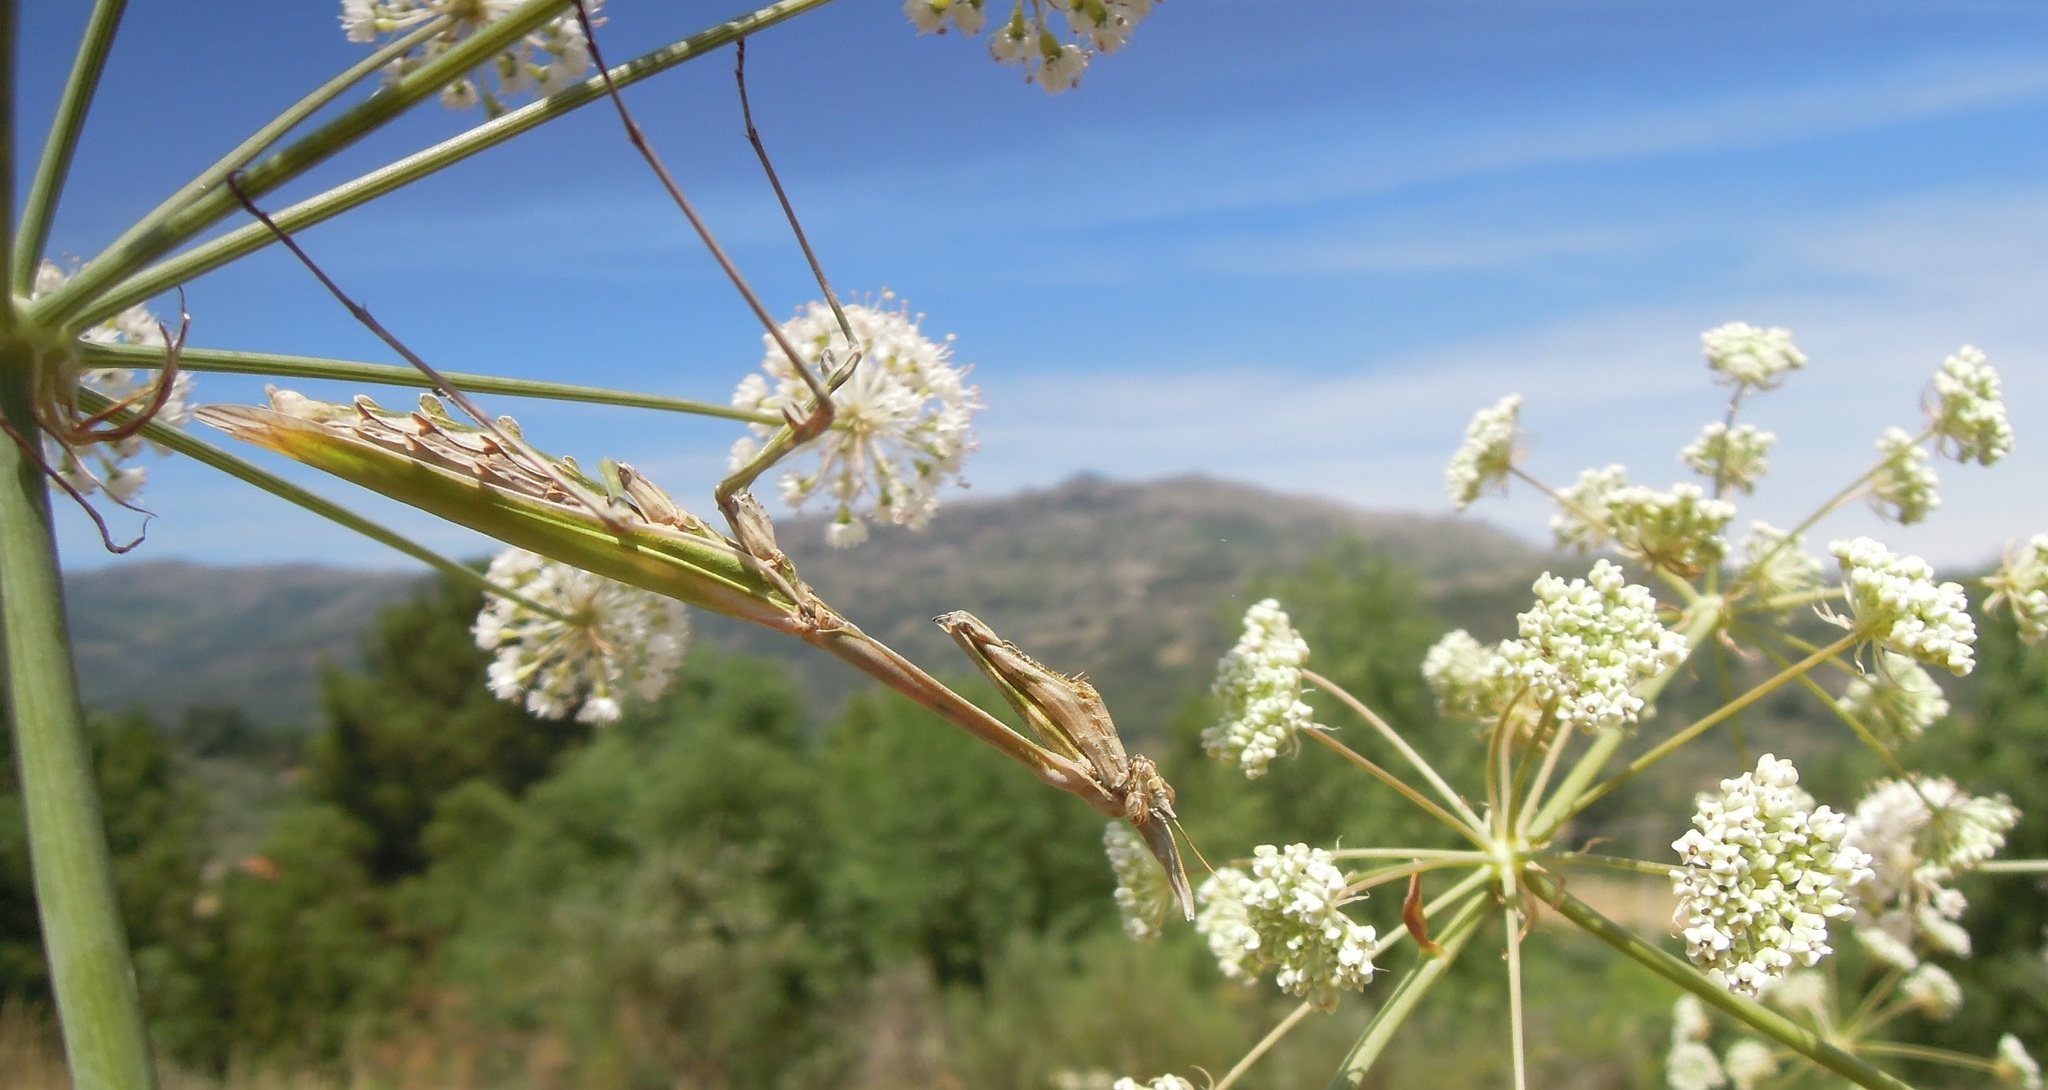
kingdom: Animalia
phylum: Arthropoda
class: Insecta
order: Mantodea
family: Empusidae
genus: Empusa
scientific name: Empusa pennata
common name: Conehead mantis
